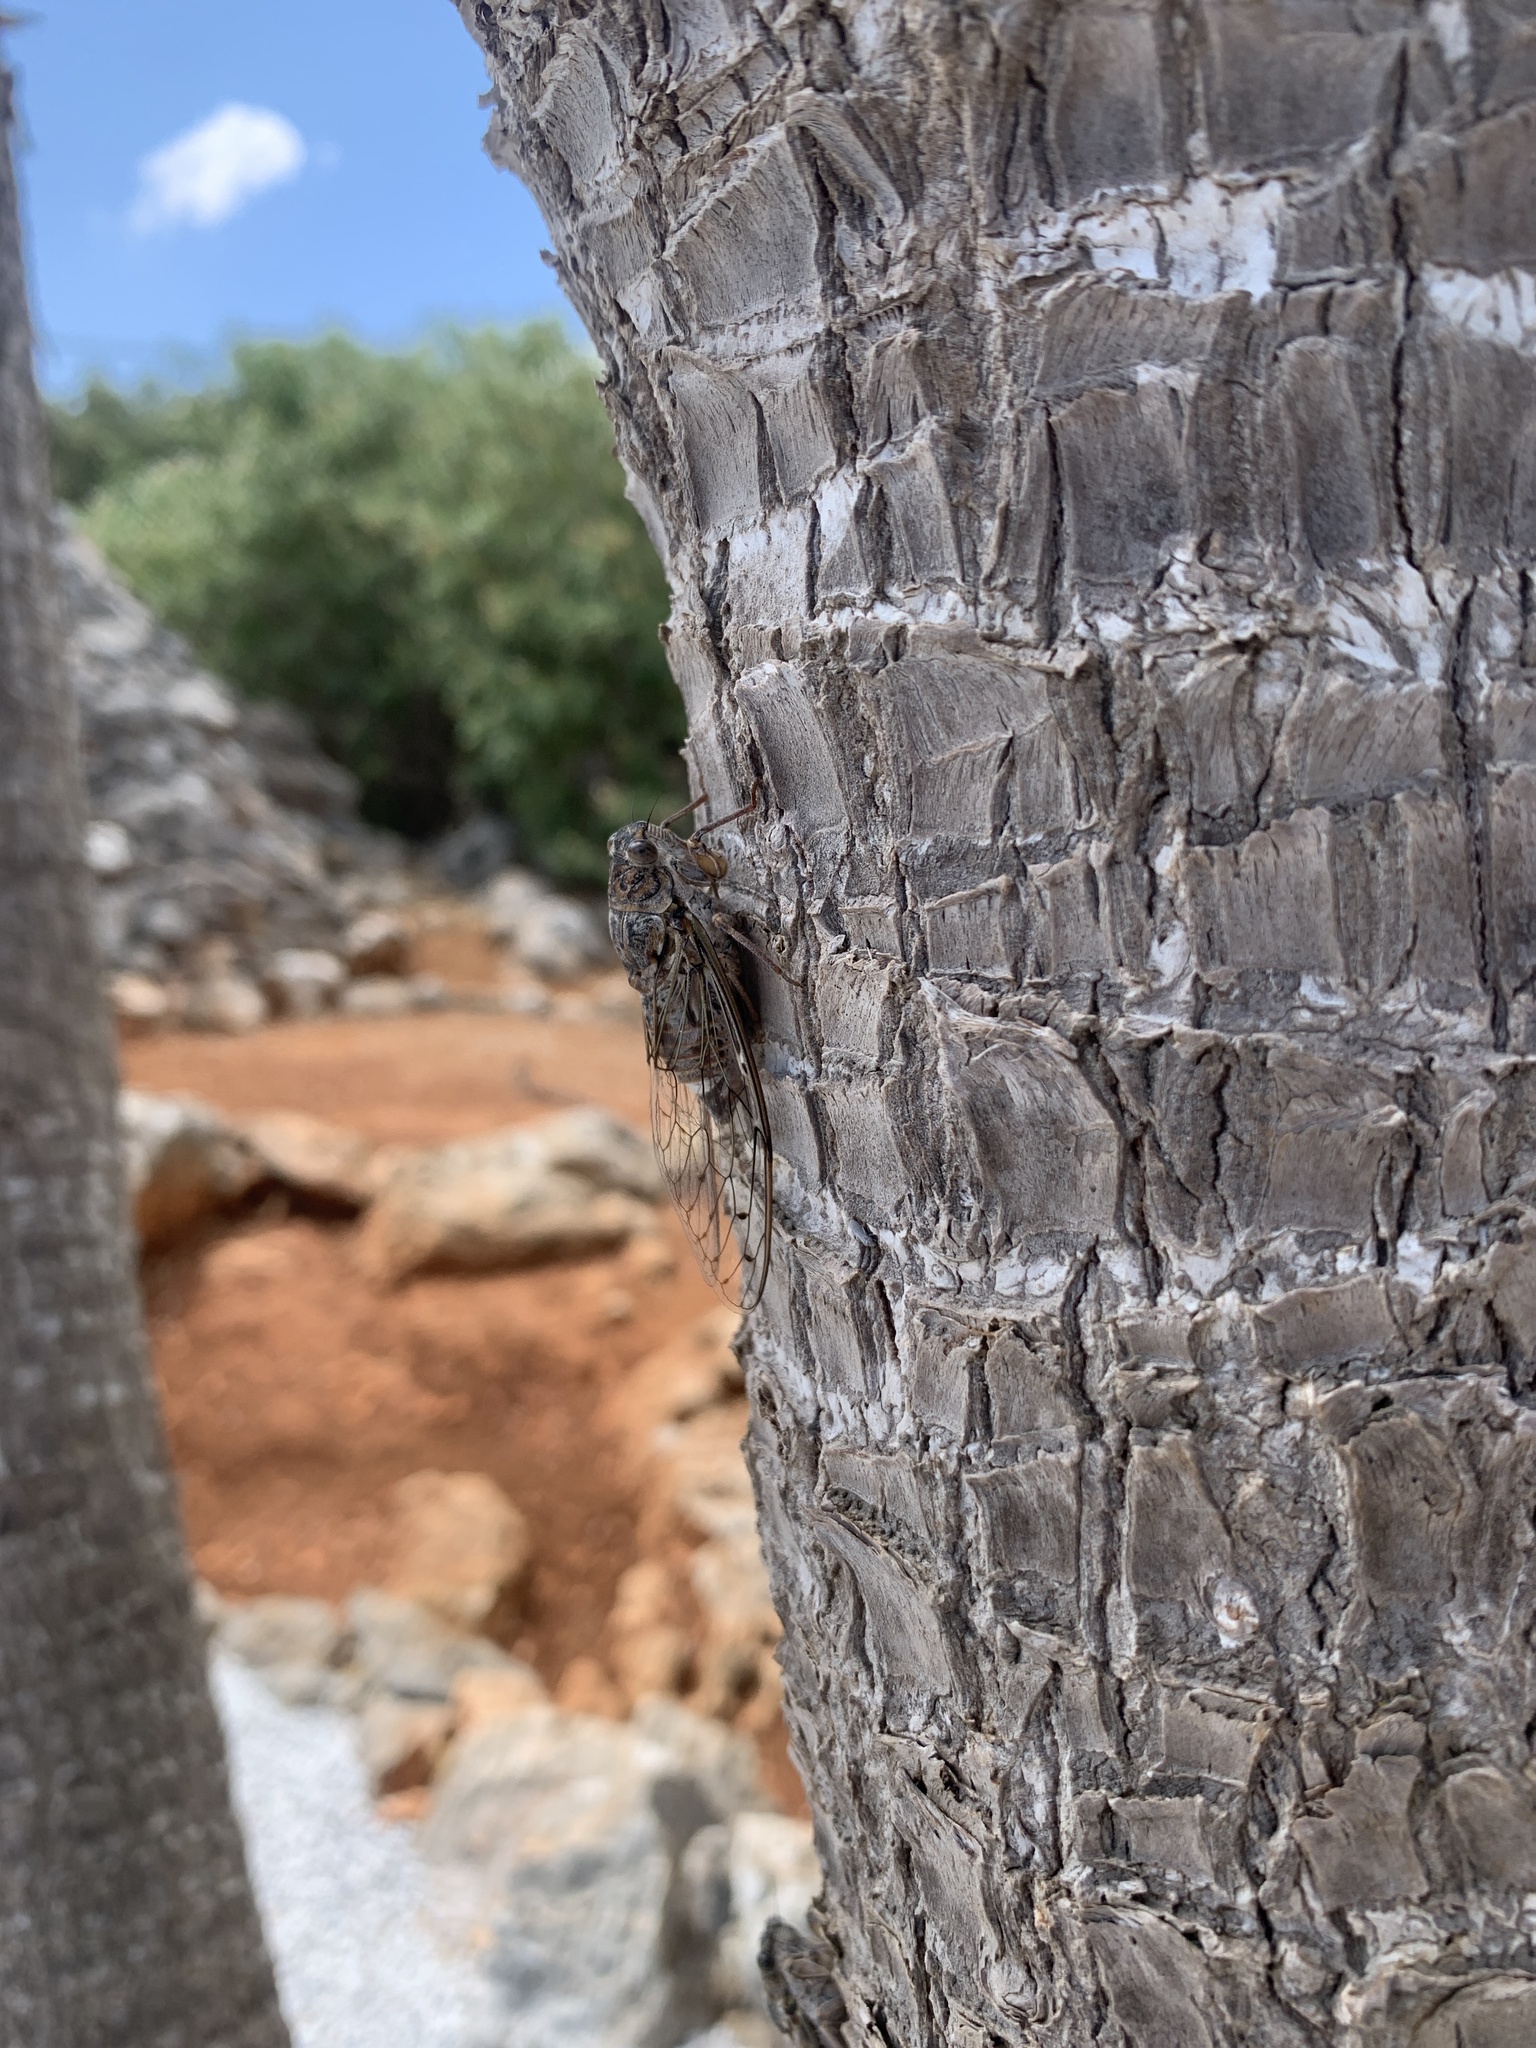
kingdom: Animalia
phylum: Arthropoda
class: Insecta
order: Hemiptera
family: Cicadidae
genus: Cicada
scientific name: Cicada cretensis
